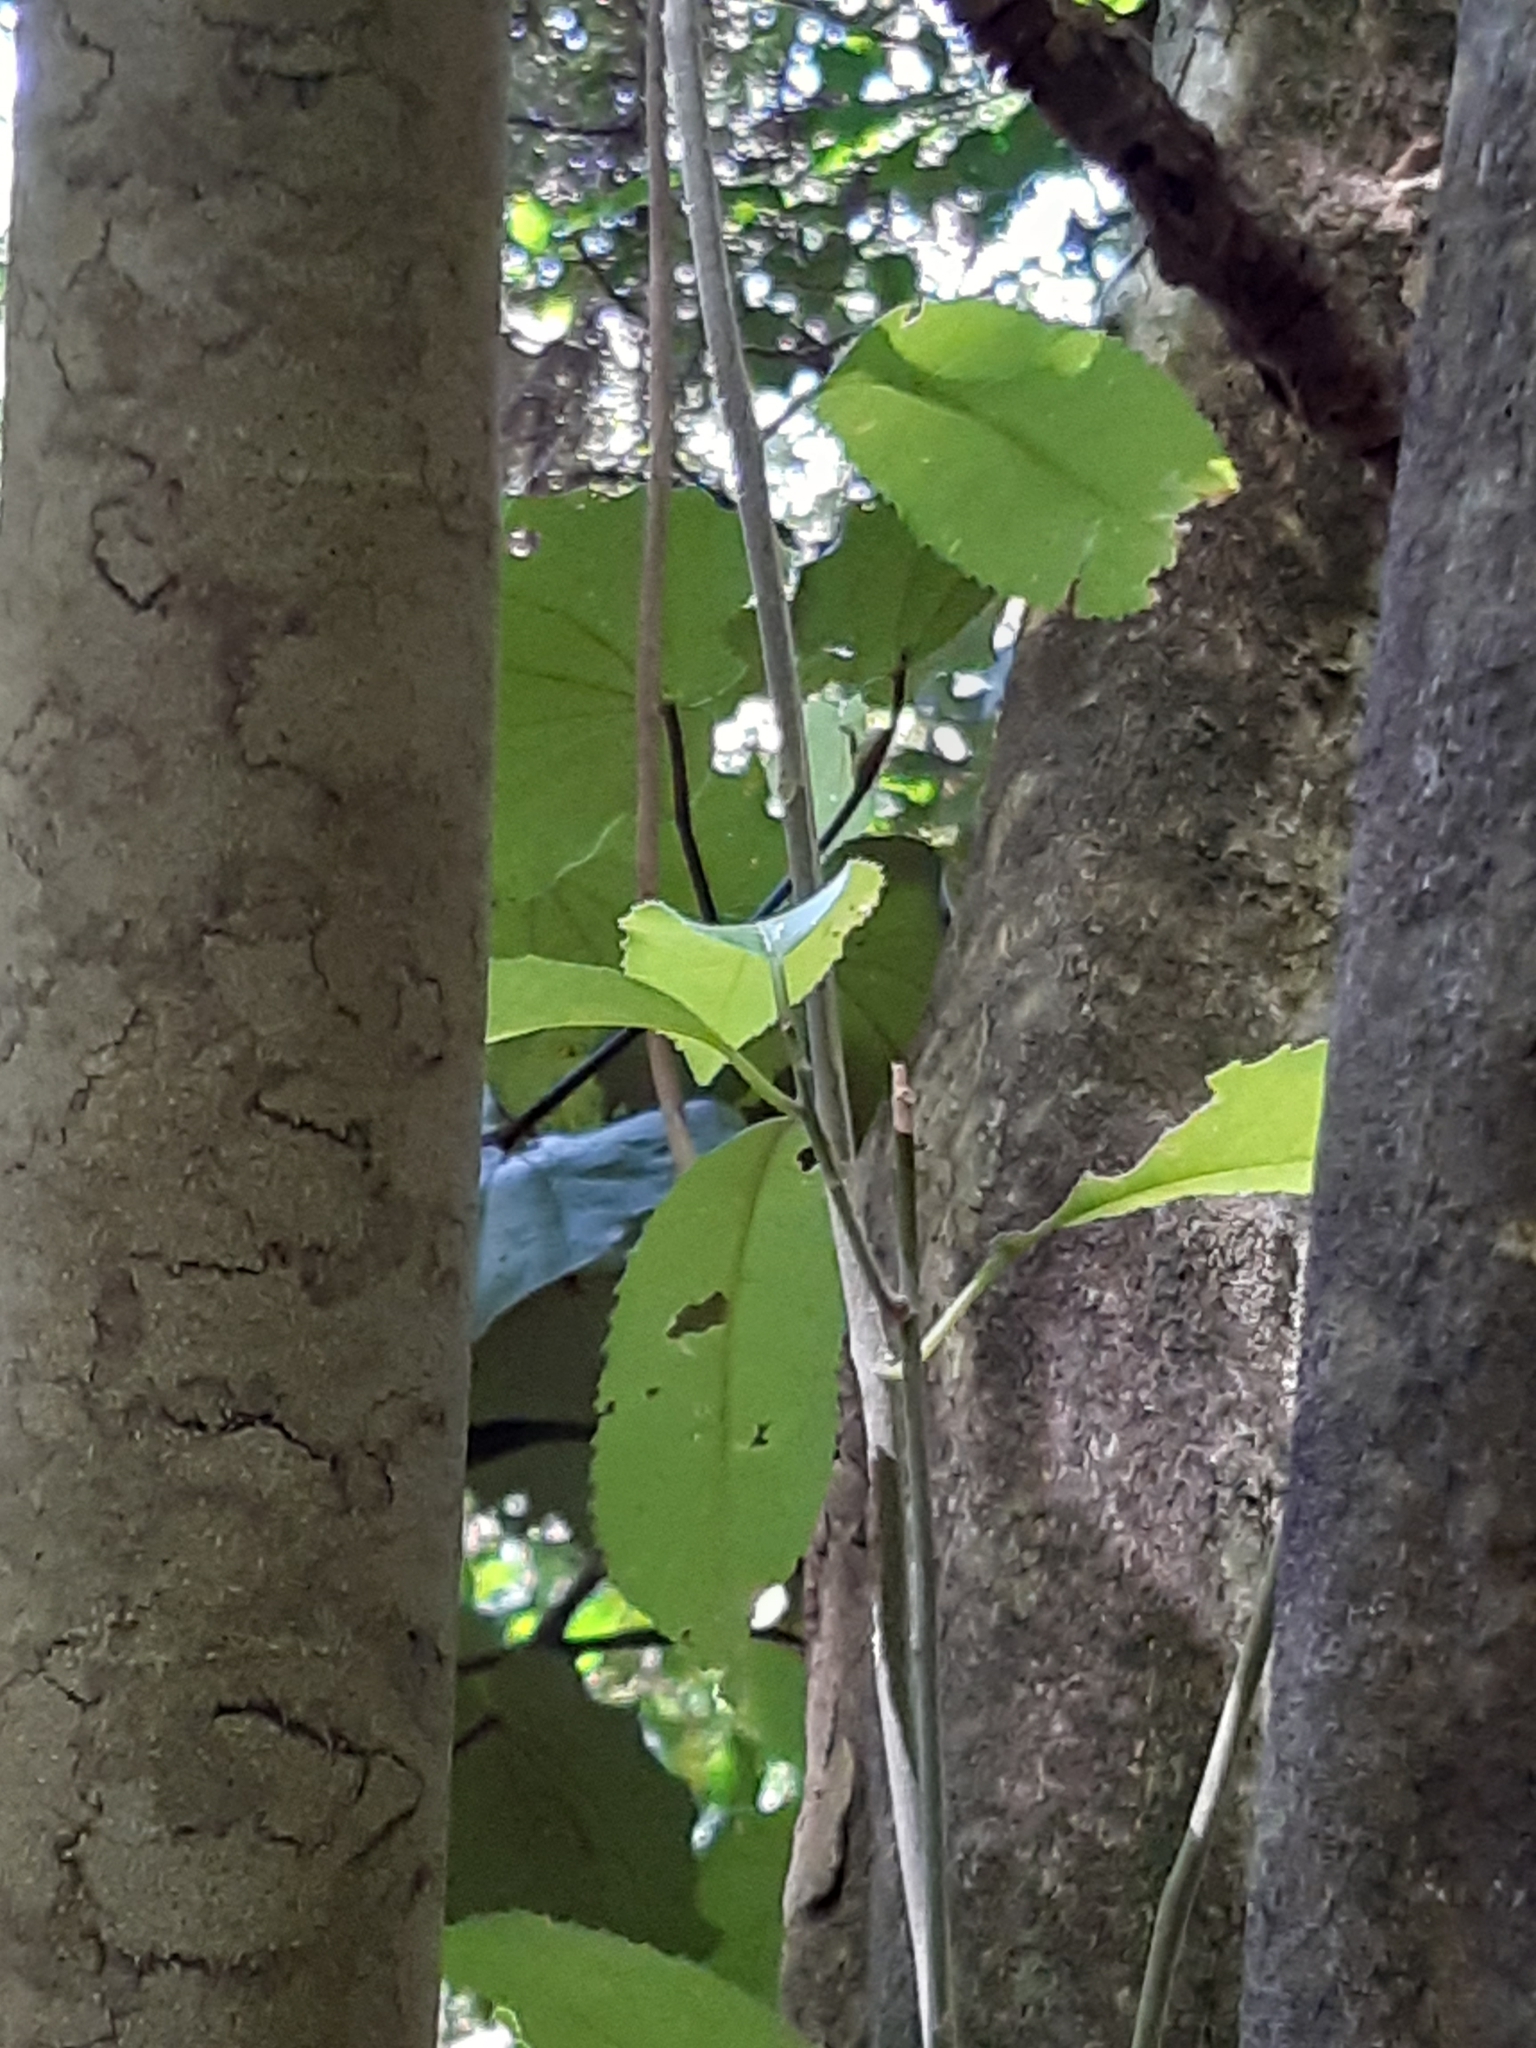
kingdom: Plantae
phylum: Tracheophyta
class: Magnoliopsida
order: Laurales
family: Monimiaceae
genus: Hedycarya
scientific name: Hedycarya arborea
